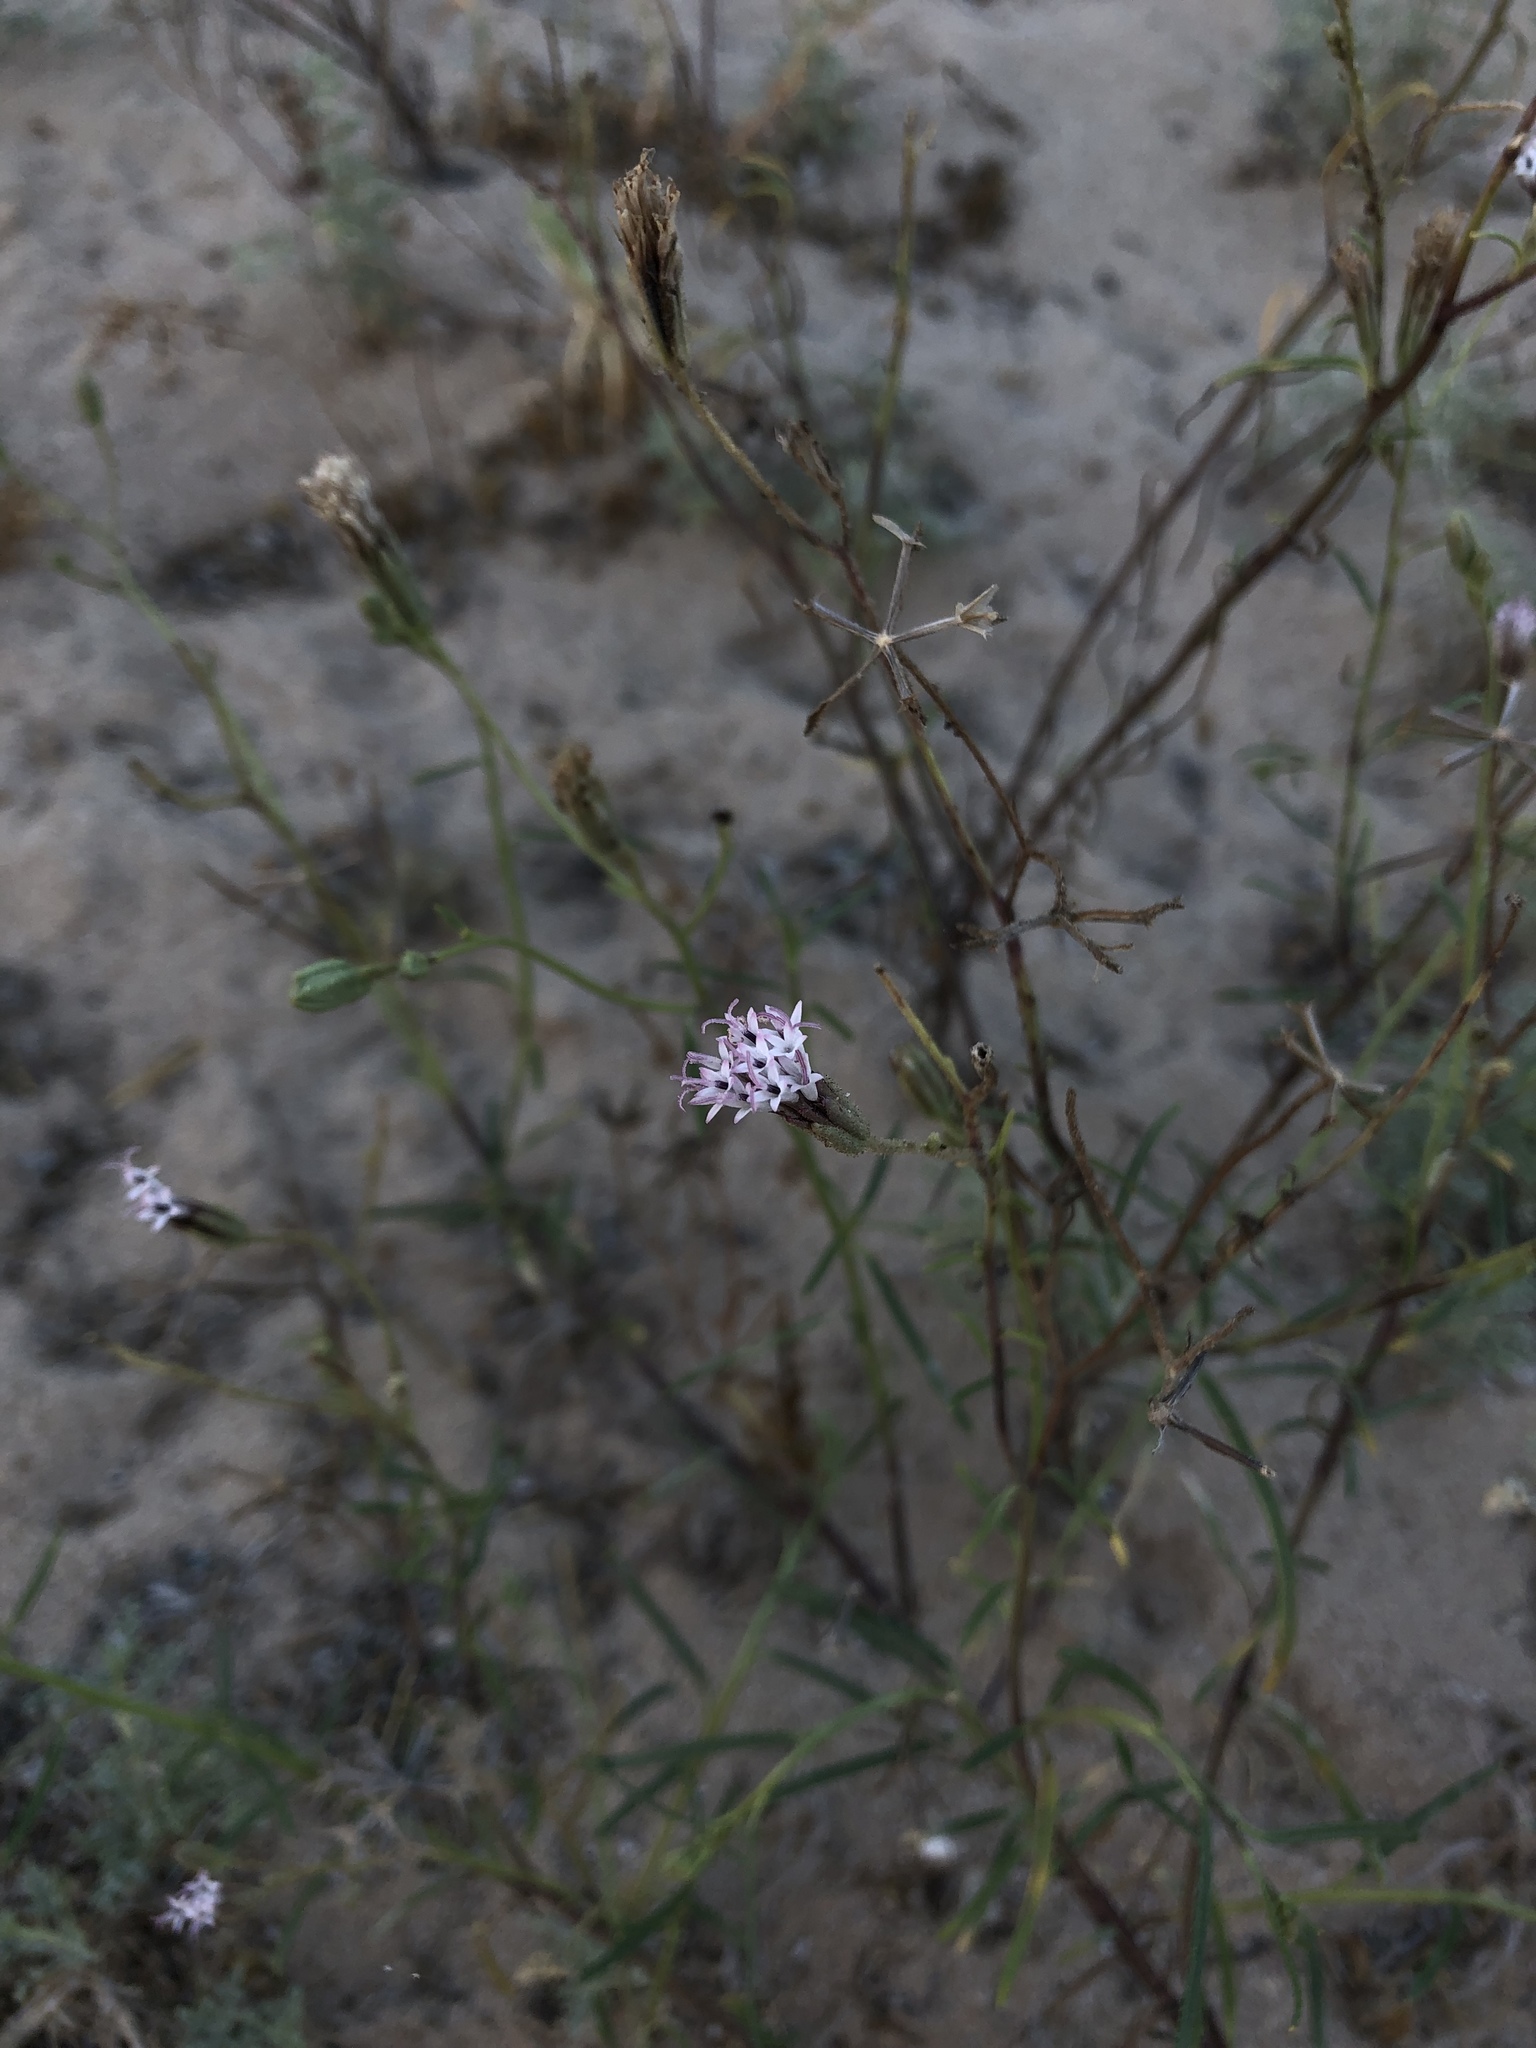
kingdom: Plantae
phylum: Tracheophyta
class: Magnoliopsida
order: Asterales
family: Asteraceae
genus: Palafoxia
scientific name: Palafoxia arida
